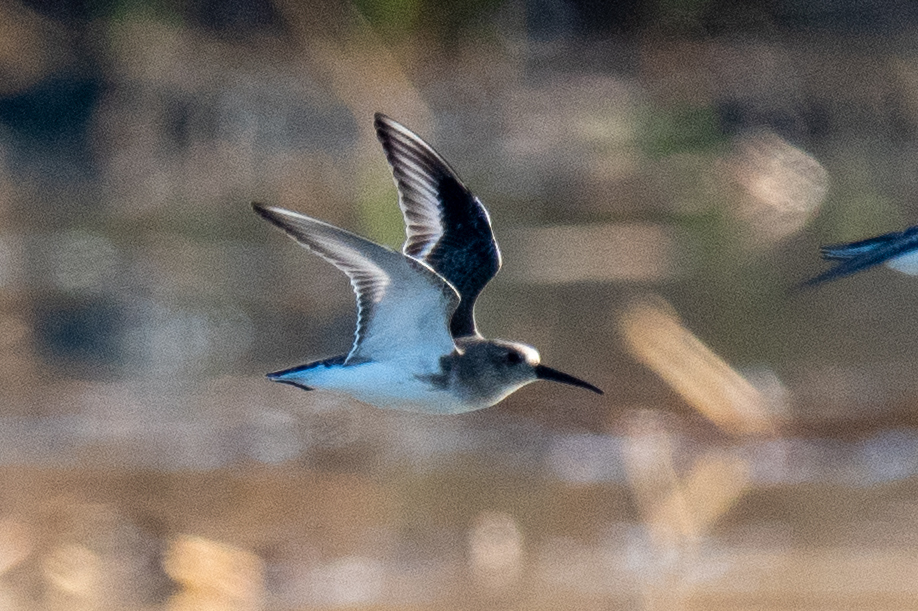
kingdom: Animalia
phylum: Chordata
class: Aves
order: Charadriiformes
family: Scolopacidae
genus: Calidris
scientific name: Calidris alpina
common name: Dunlin
